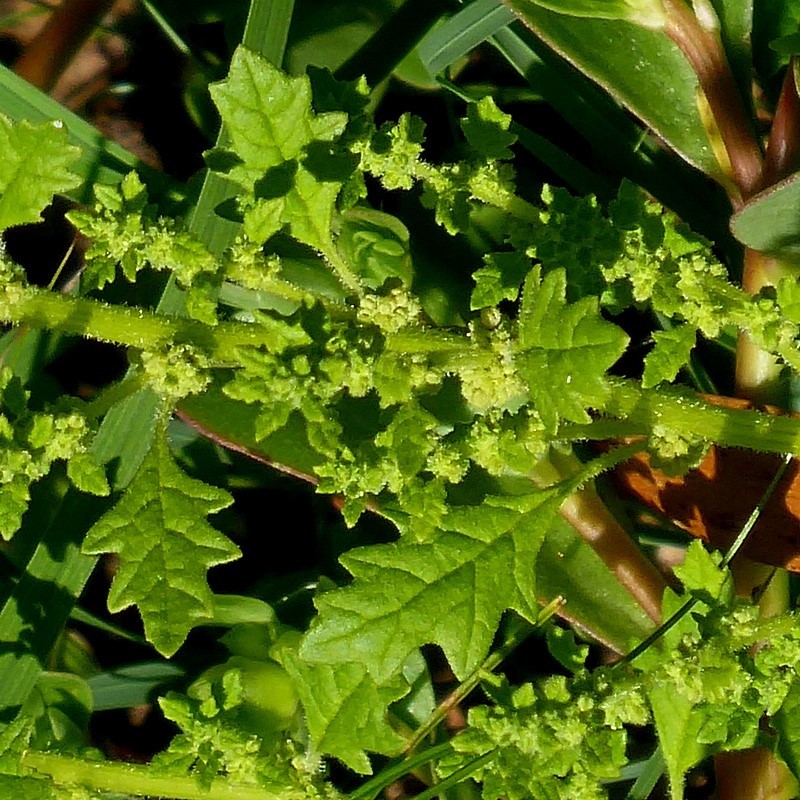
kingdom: Plantae
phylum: Tracheophyta
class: Magnoliopsida
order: Caryophyllales
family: Amaranthaceae
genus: Dysphania
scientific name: Dysphania pumilio
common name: Clammy goosefoot
